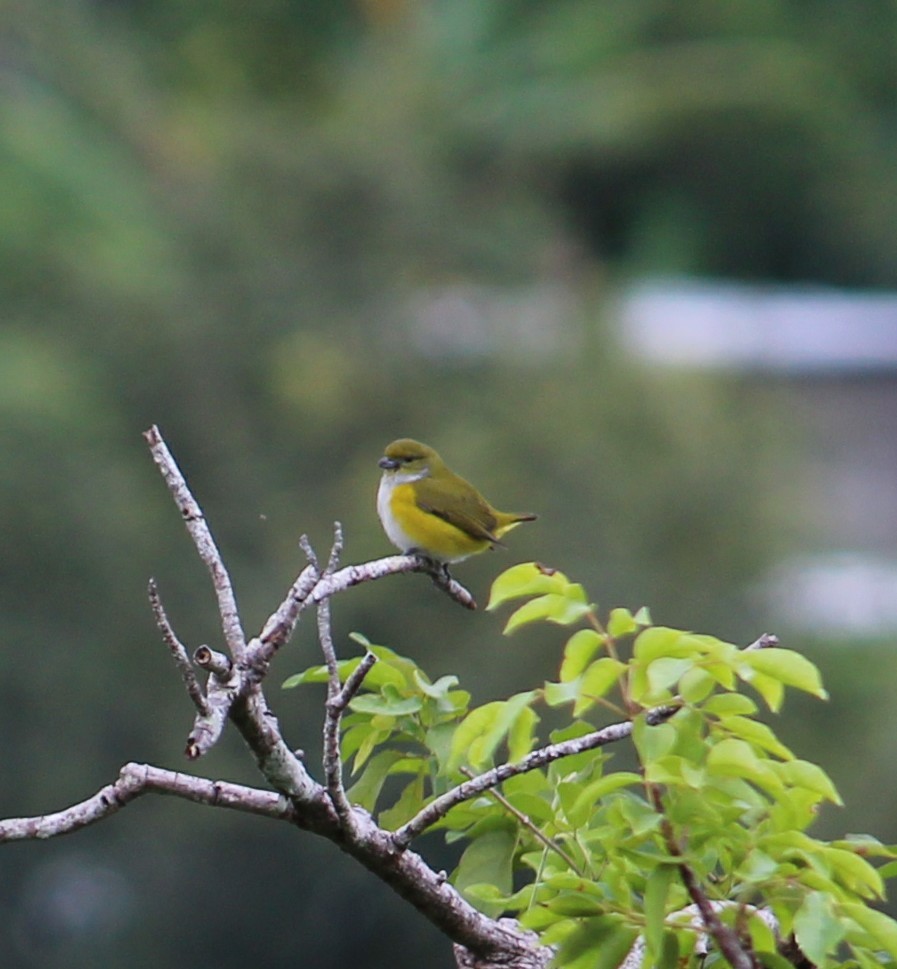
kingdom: Animalia
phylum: Chordata
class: Aves
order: Passeriformes
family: Fringillidae
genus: Euphonia
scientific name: Euphonia hirundinacea
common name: Yellow-throated euphonia
